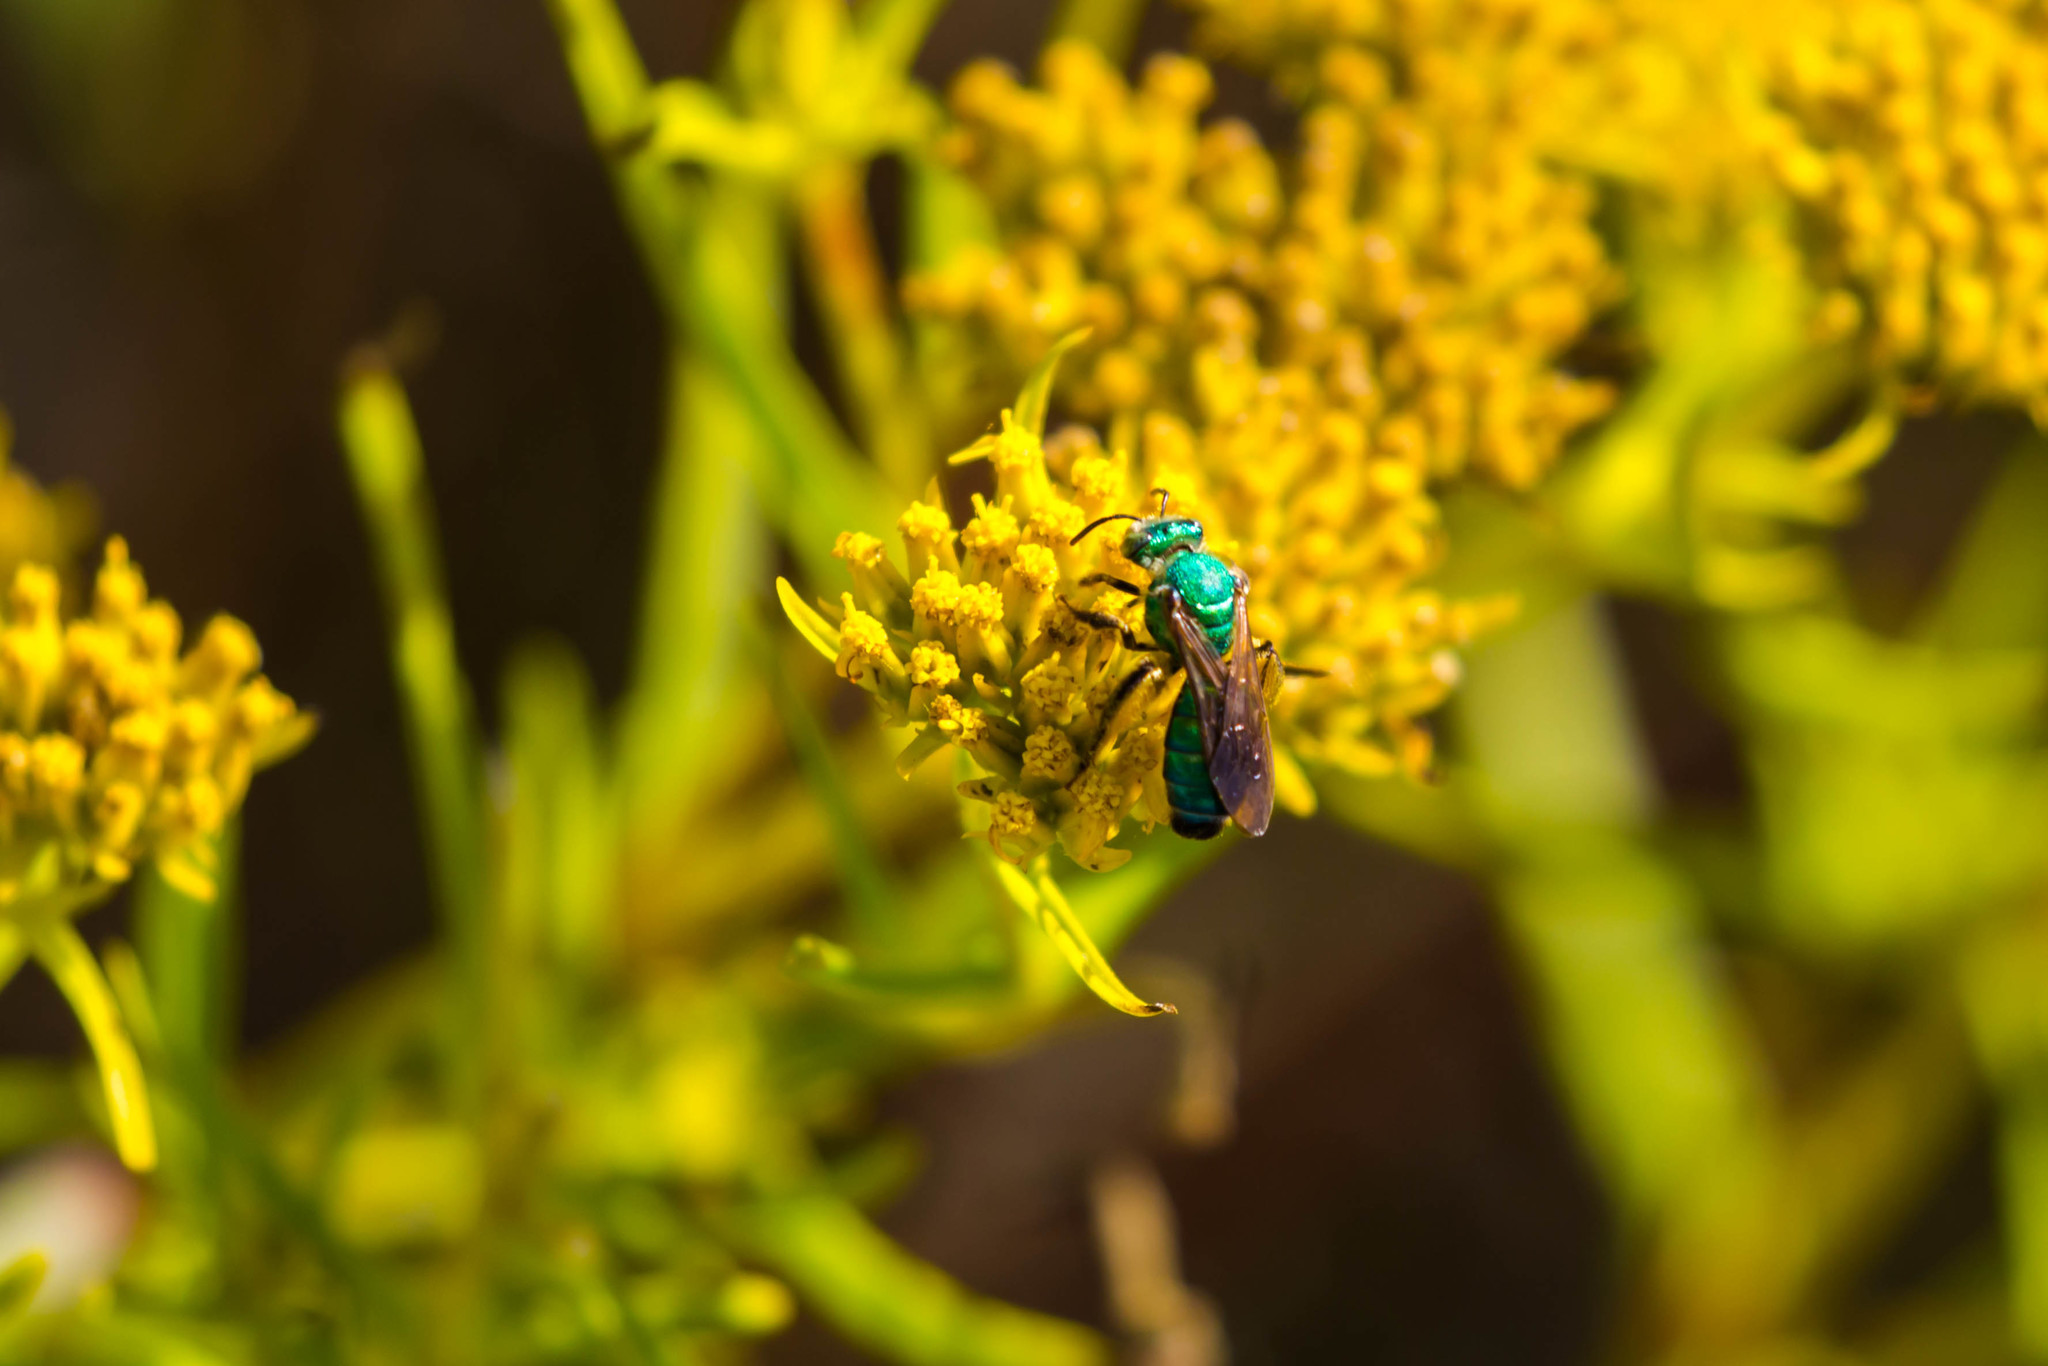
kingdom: Animalia
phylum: Arthropoda
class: Insecta
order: Hymenoptera
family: Halictidae
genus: Agapostemon
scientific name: Agapostemon splendens
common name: Brown-winged striped sweat bee
